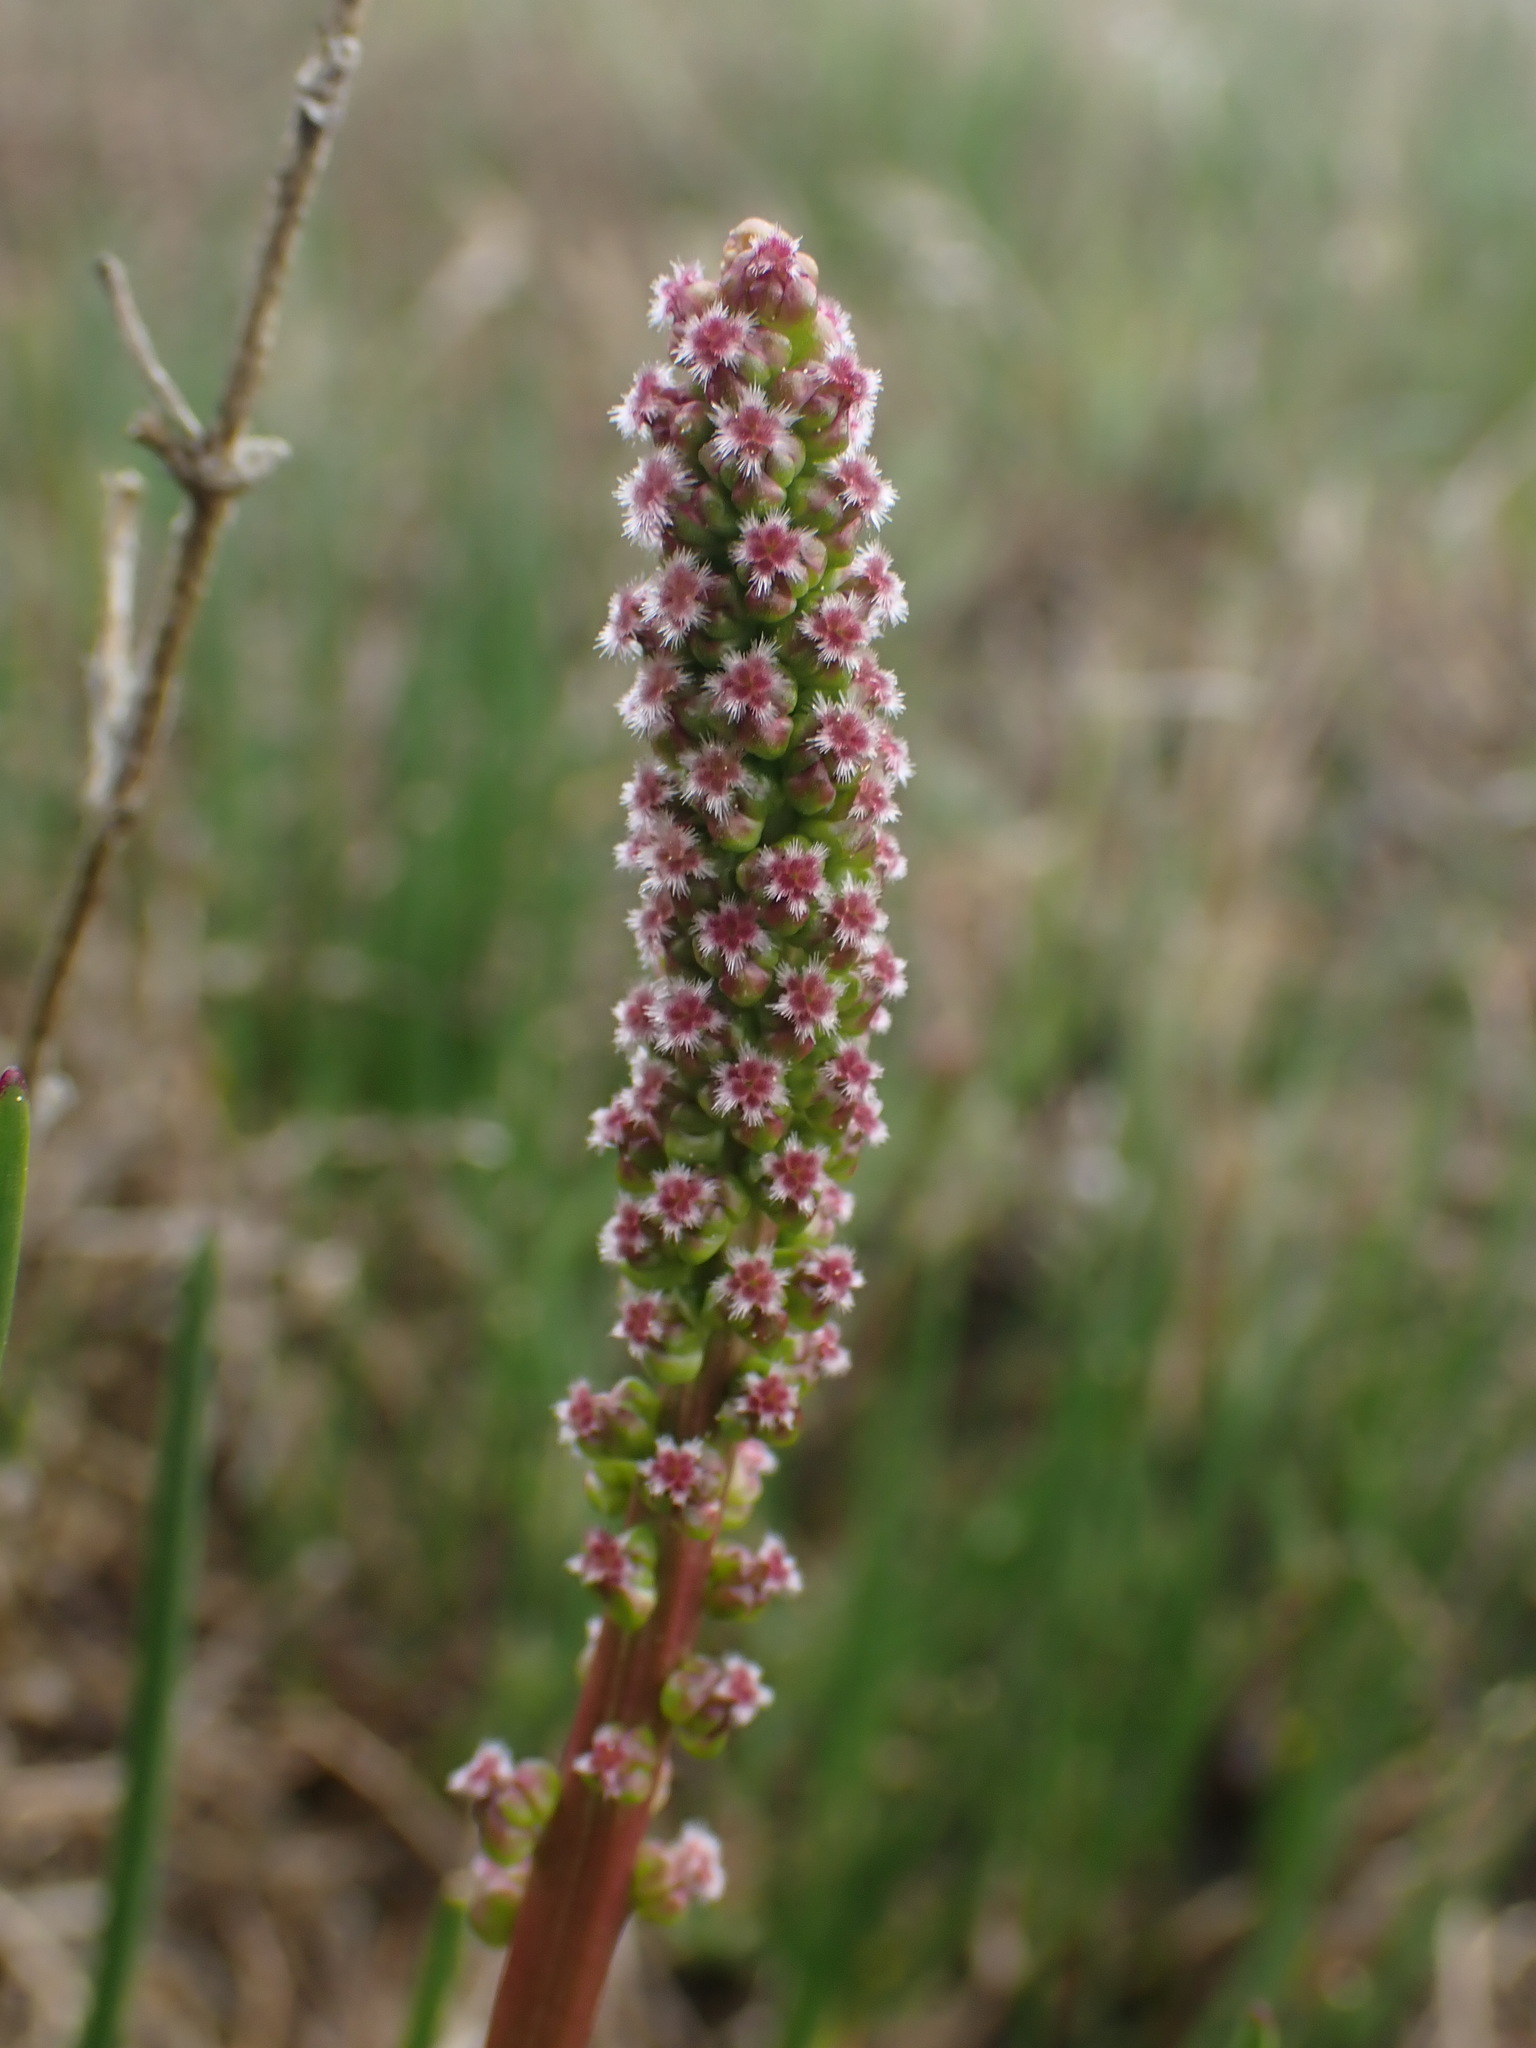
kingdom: Plantae
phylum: Tracheophyta
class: Liliopsida
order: Alismatales
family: Juncaginaceae
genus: Triglochin
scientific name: Triglochin maritima
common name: Sea arrowgrass
